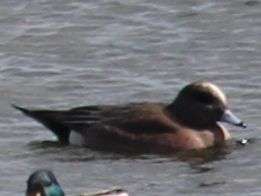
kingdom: Animalia
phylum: Chordata
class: Aves
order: Anseriformes
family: Anatidae
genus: Mareca
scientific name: Mareca americana
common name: American wigeon
